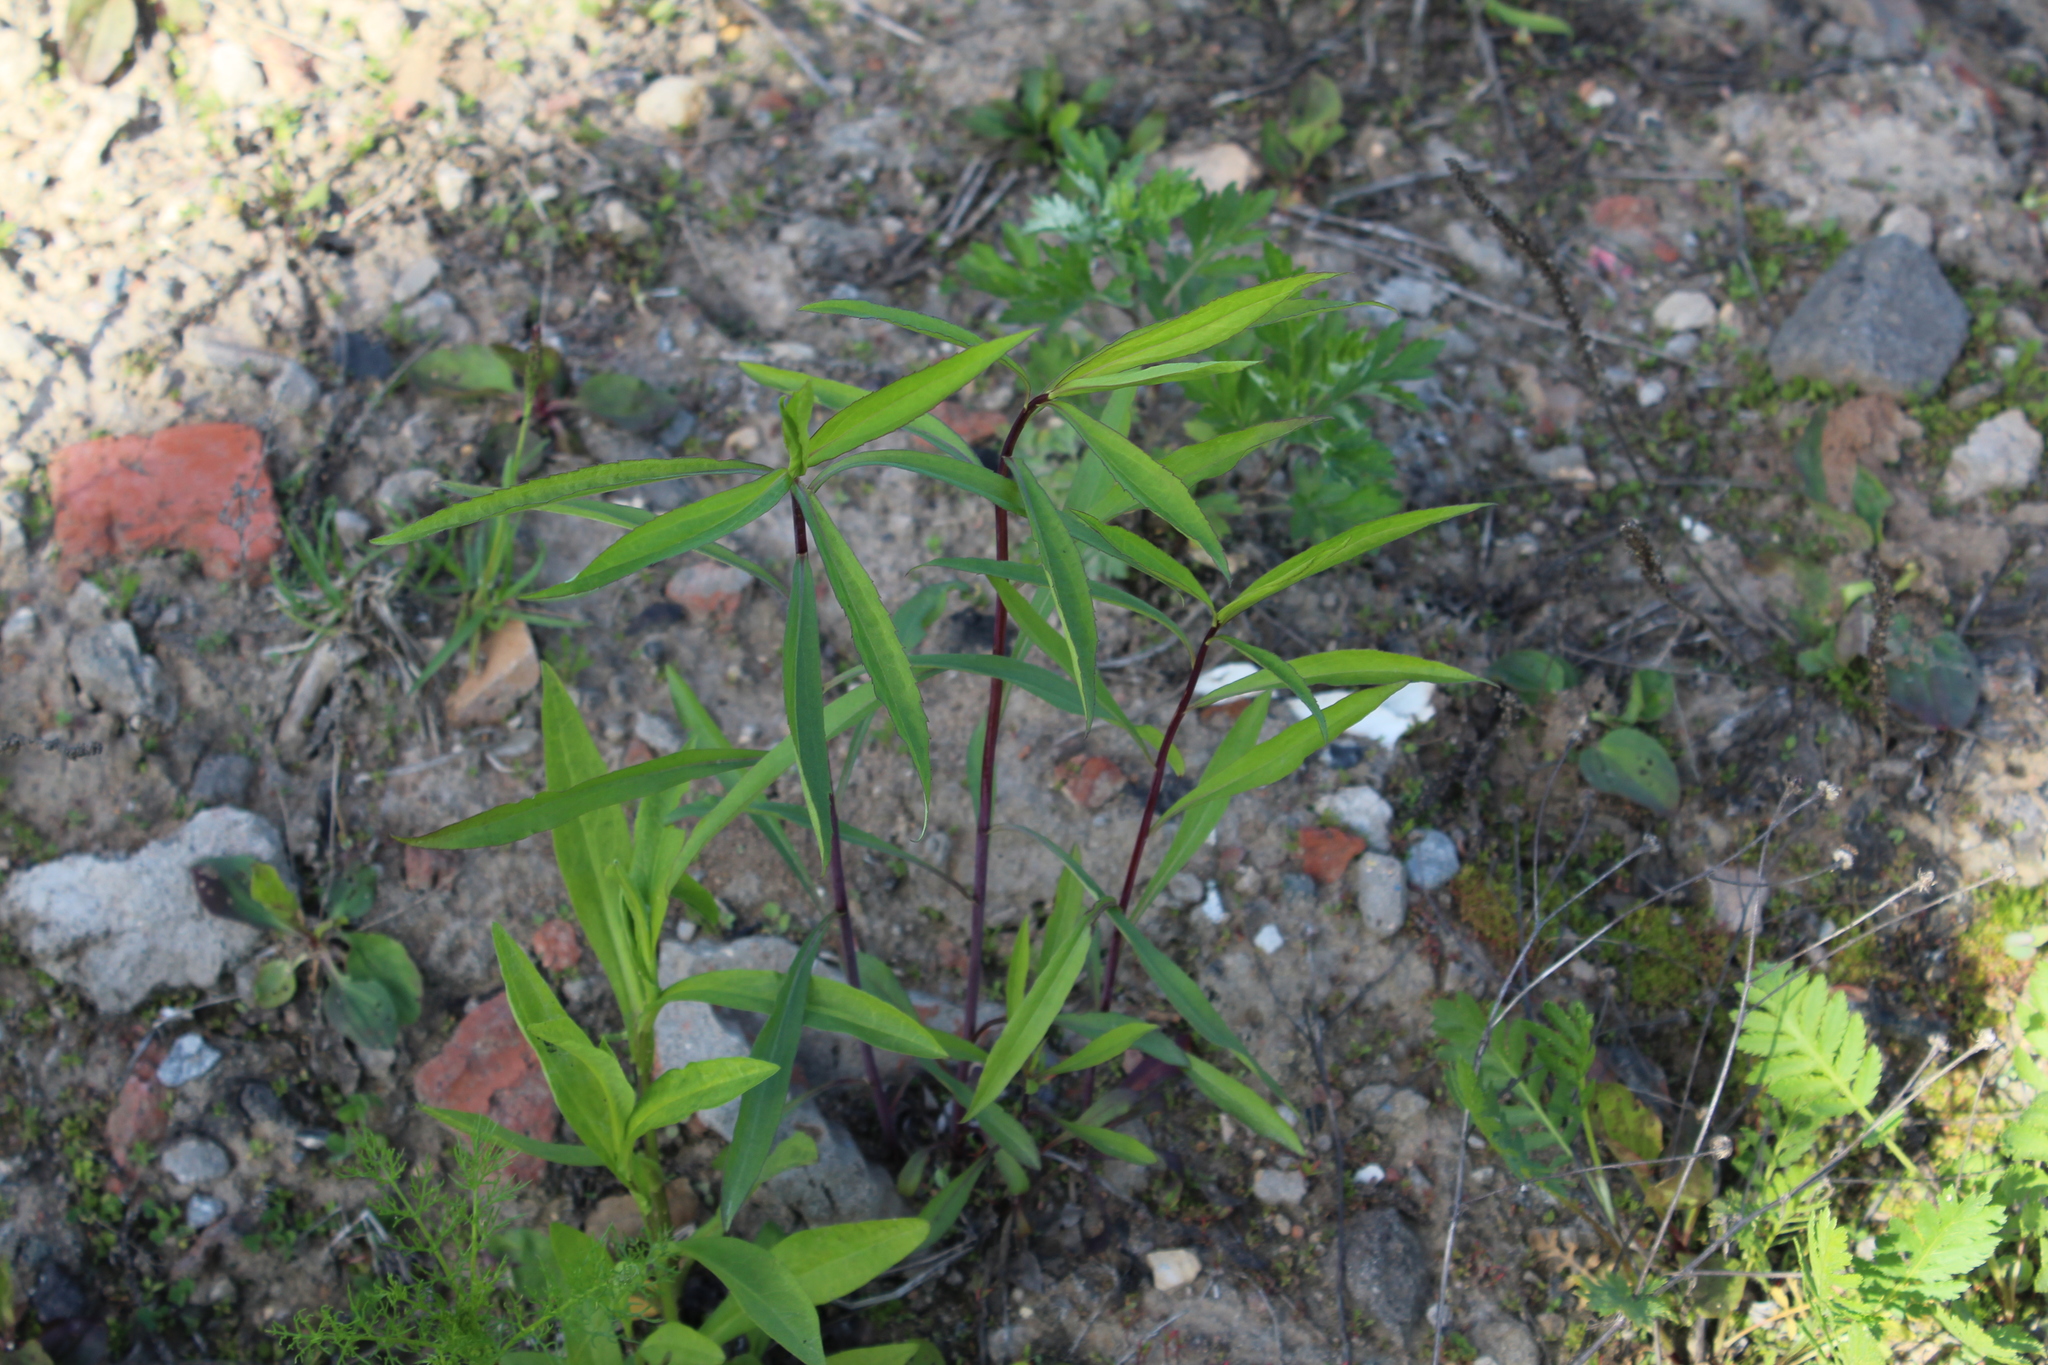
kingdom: Plantae
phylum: Tracheophyta
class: Magnoliopsida
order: Asterales
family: Asteraceae
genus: Solidago
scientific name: Solidago gigantea
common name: Giant goldenrod
